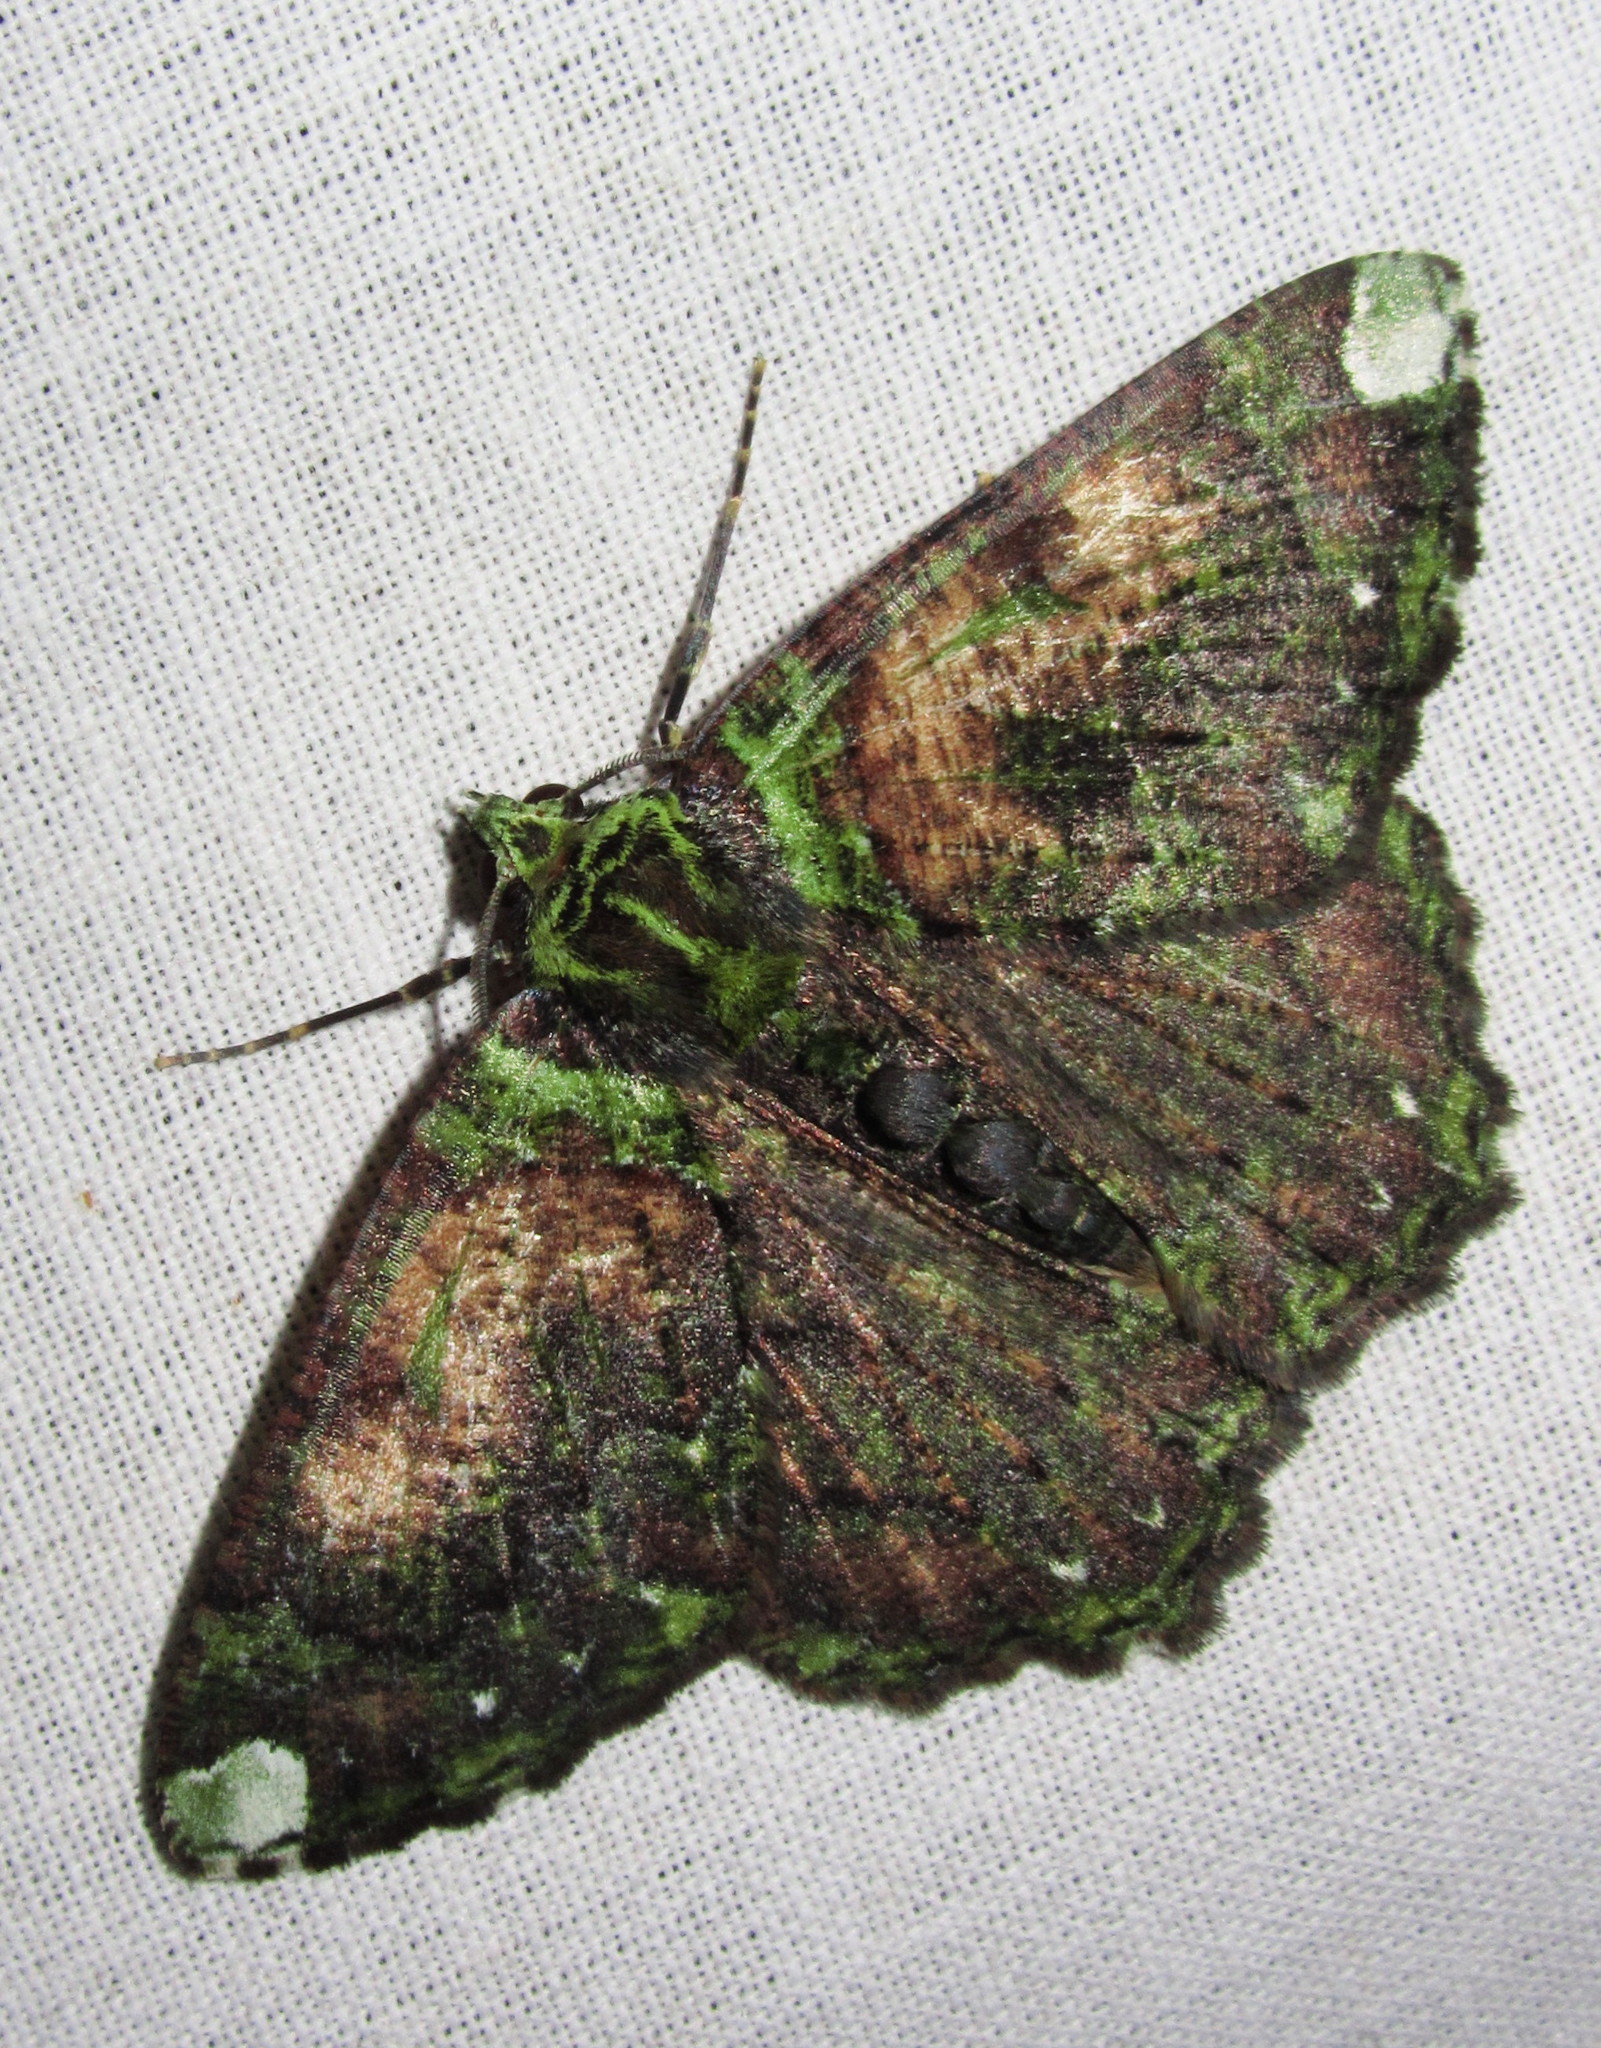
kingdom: Animalia
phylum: Arthropoda
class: Insecta
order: Lepidoptera
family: Geometridae
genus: Dindicodes
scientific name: Dindicodes apicalis
